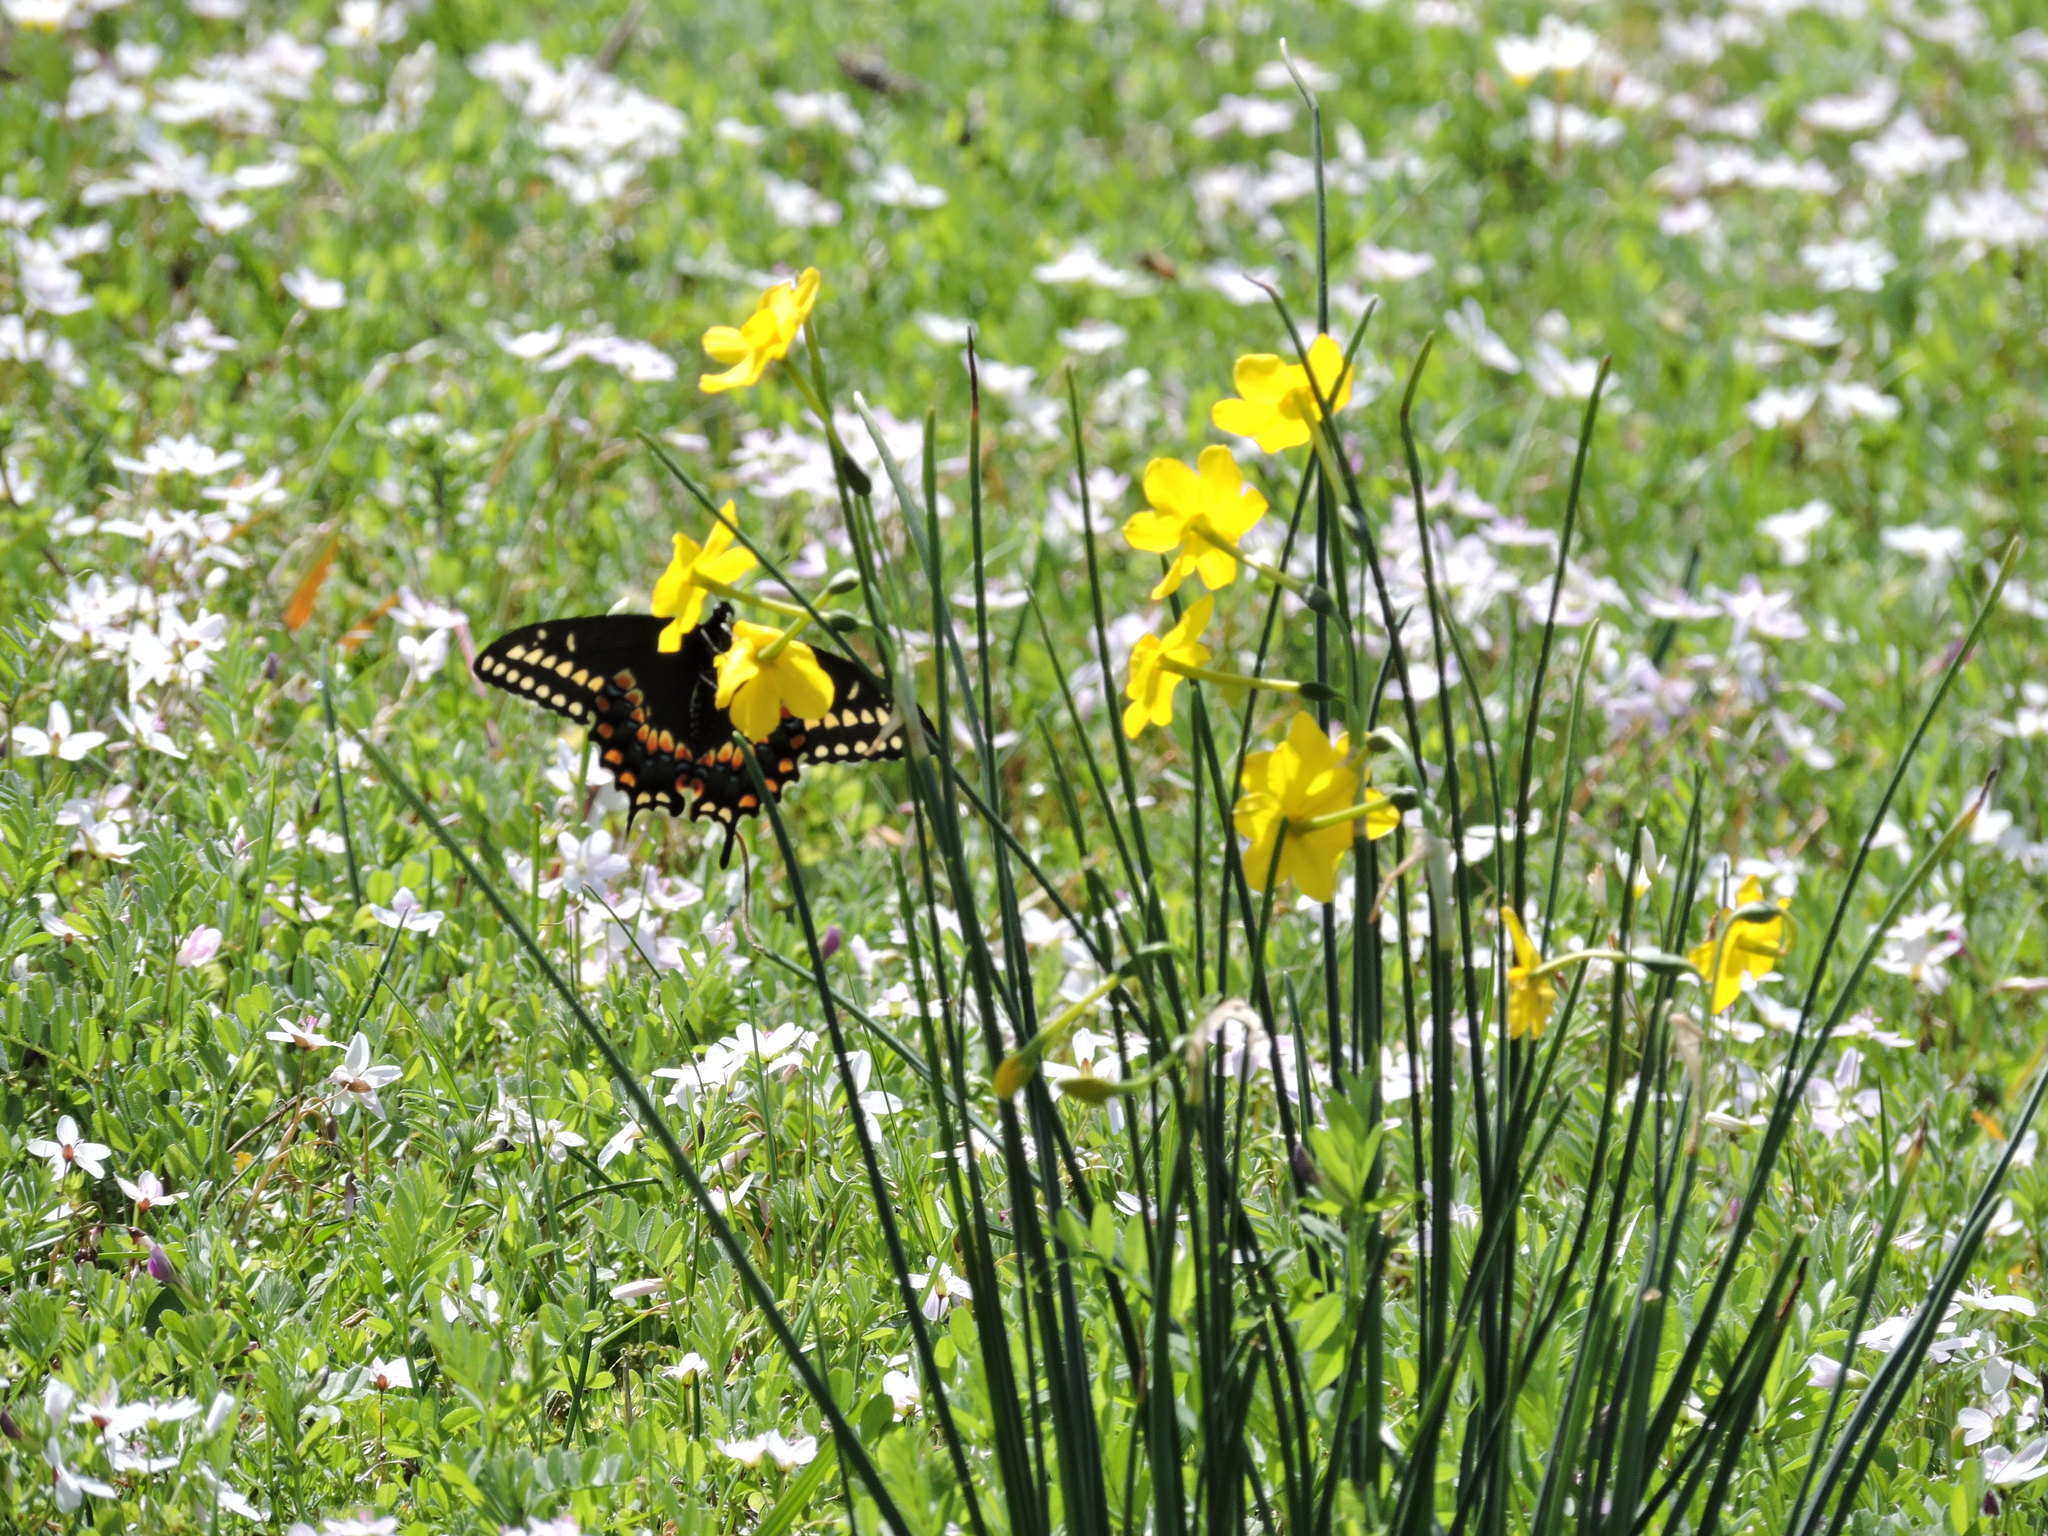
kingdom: Animalia
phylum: Arthropoda
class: Insecta
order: Lepidoptera
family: Papilionidae
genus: Papilio
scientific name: Papilio polyxenes
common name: Black swallowtail
